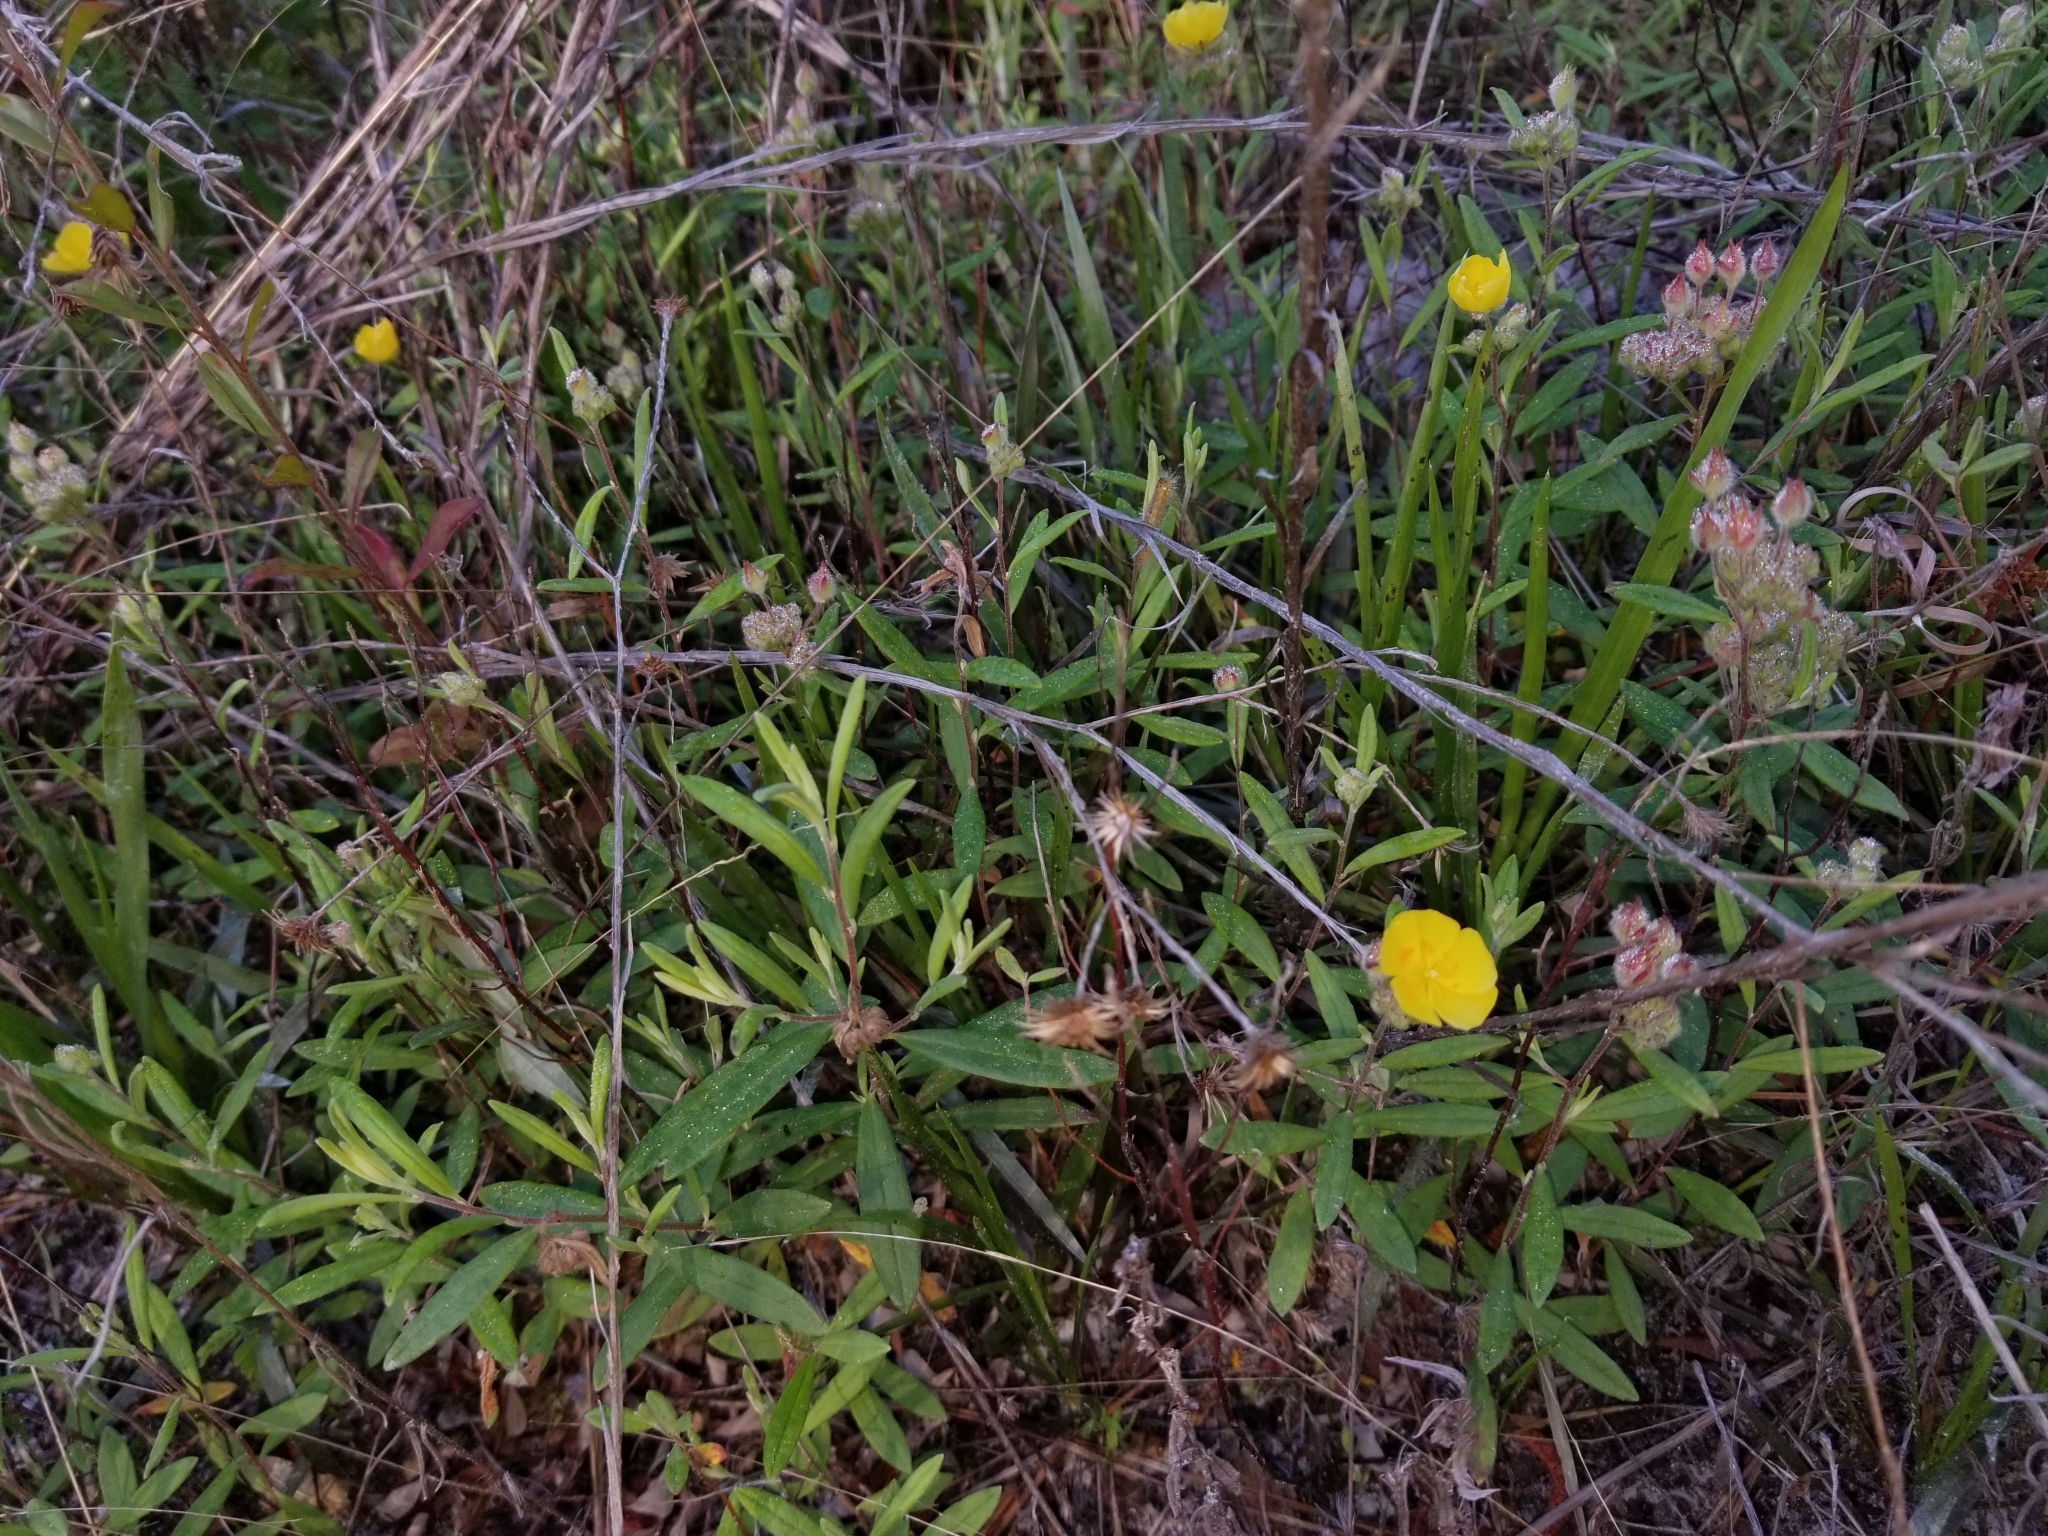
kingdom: Plantae
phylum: Tracheophyta
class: Magnoliopsida
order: Malvales
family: Cistaceae
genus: Crocanthemum
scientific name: Crocanthemum corymbosum
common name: Pinebarren sun-rose
